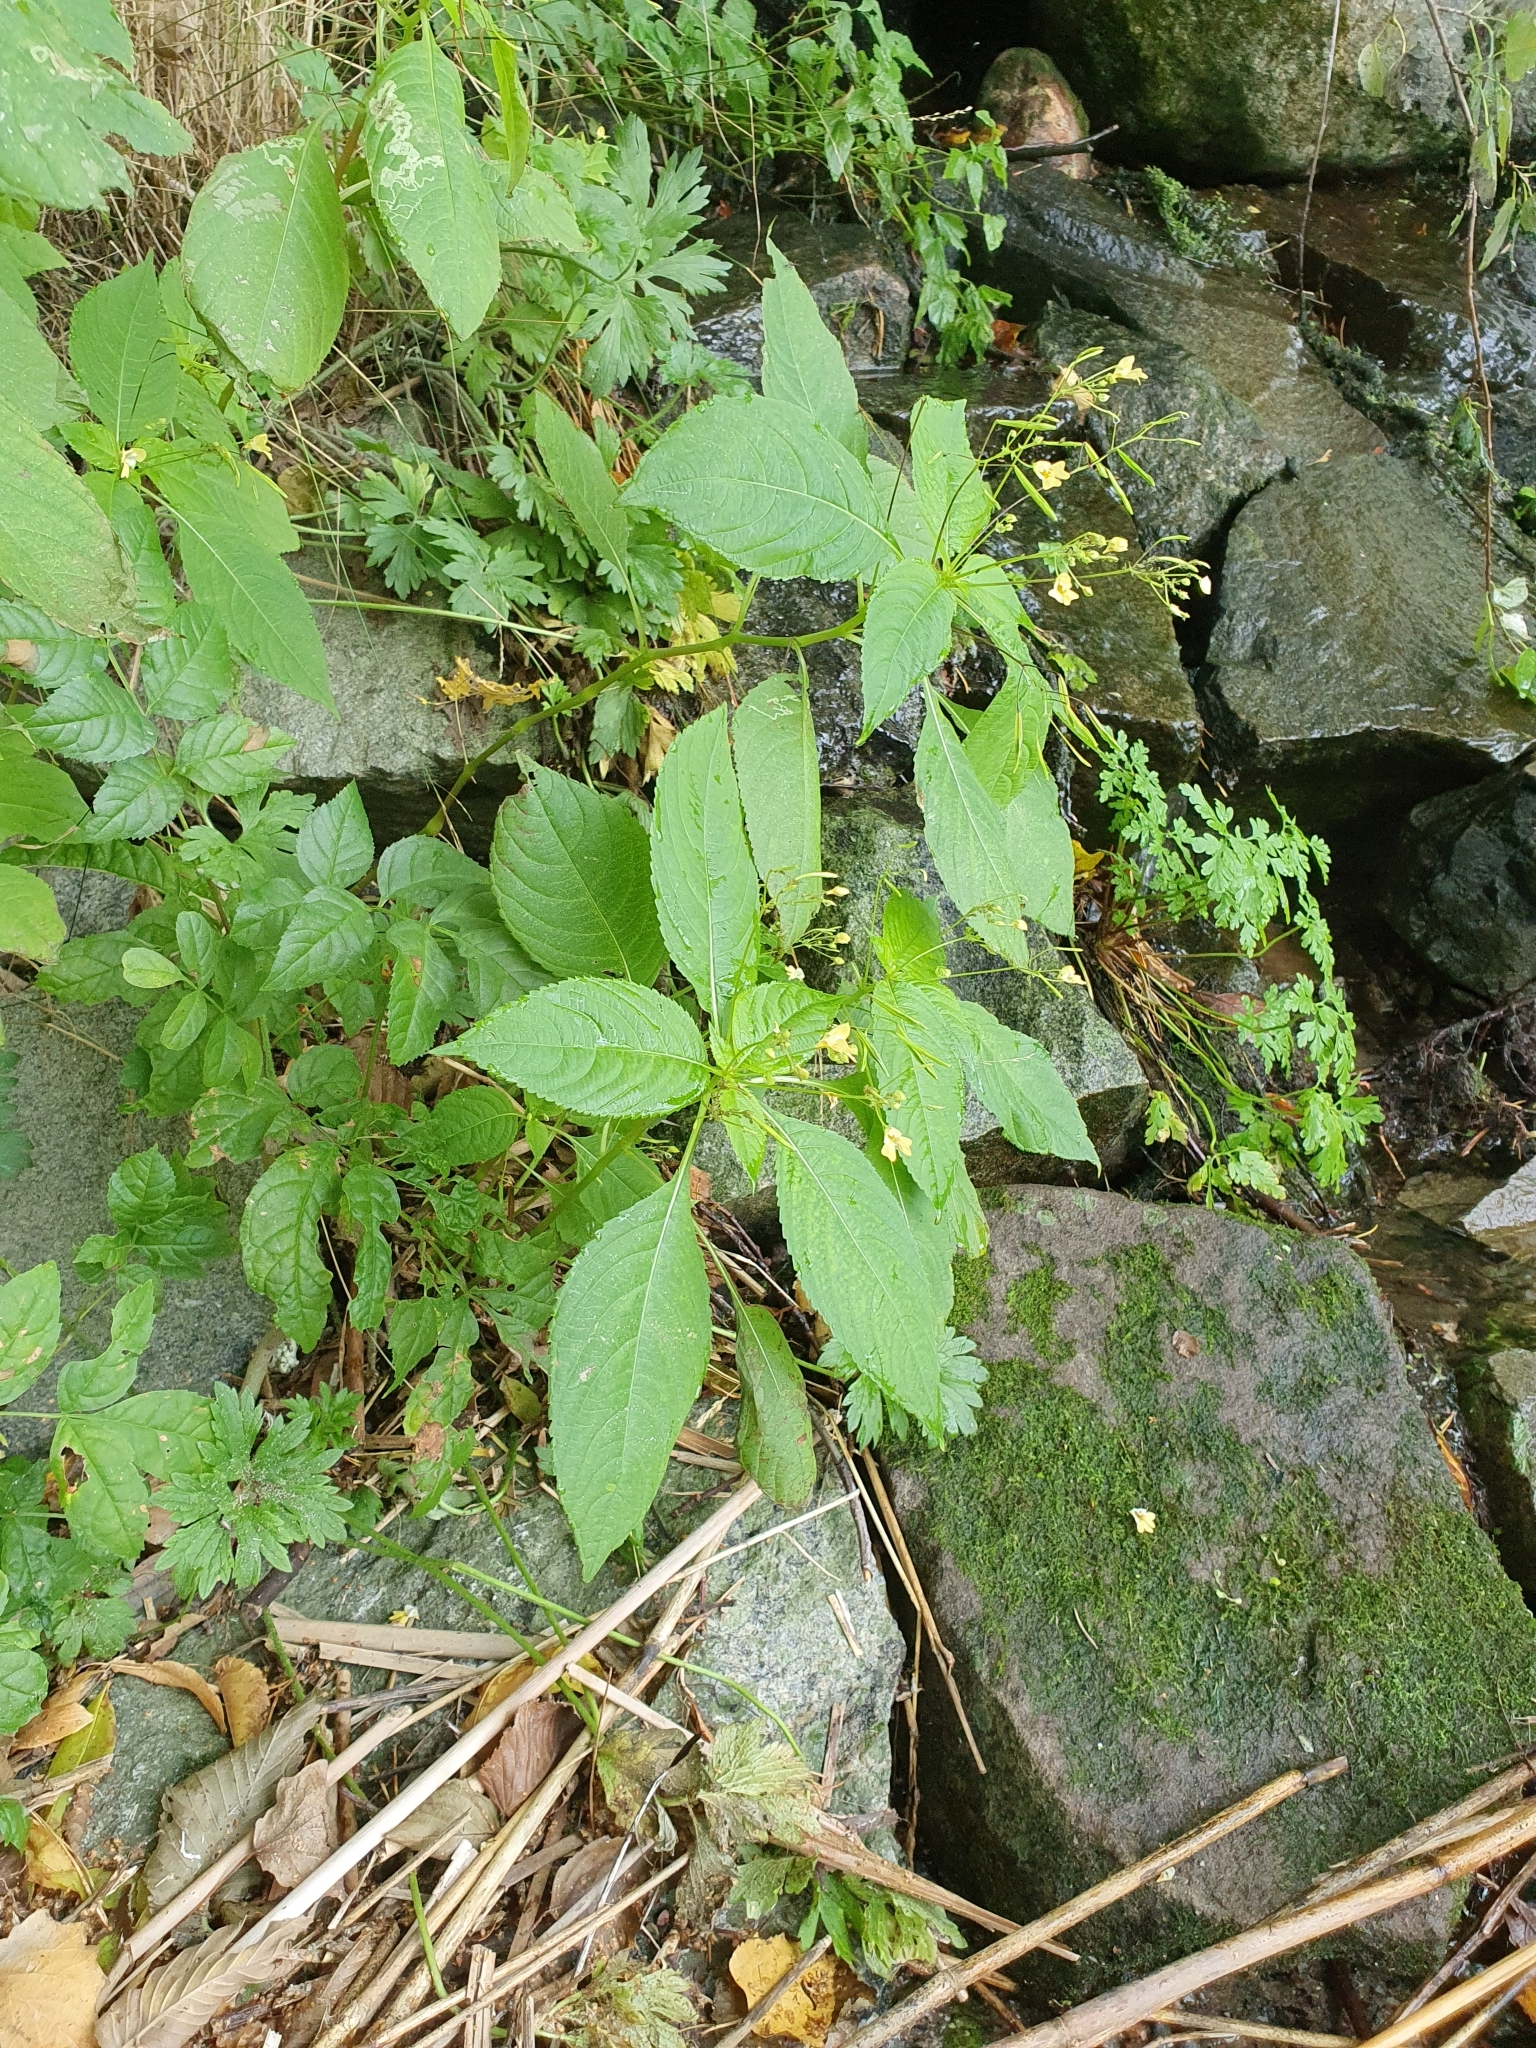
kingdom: Plantae
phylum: Tracheophyta
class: Magnoliopsida
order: Ericales
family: Balsaminaceae
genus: Impatiens
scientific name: Impatiens parviflora
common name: Small balsam
